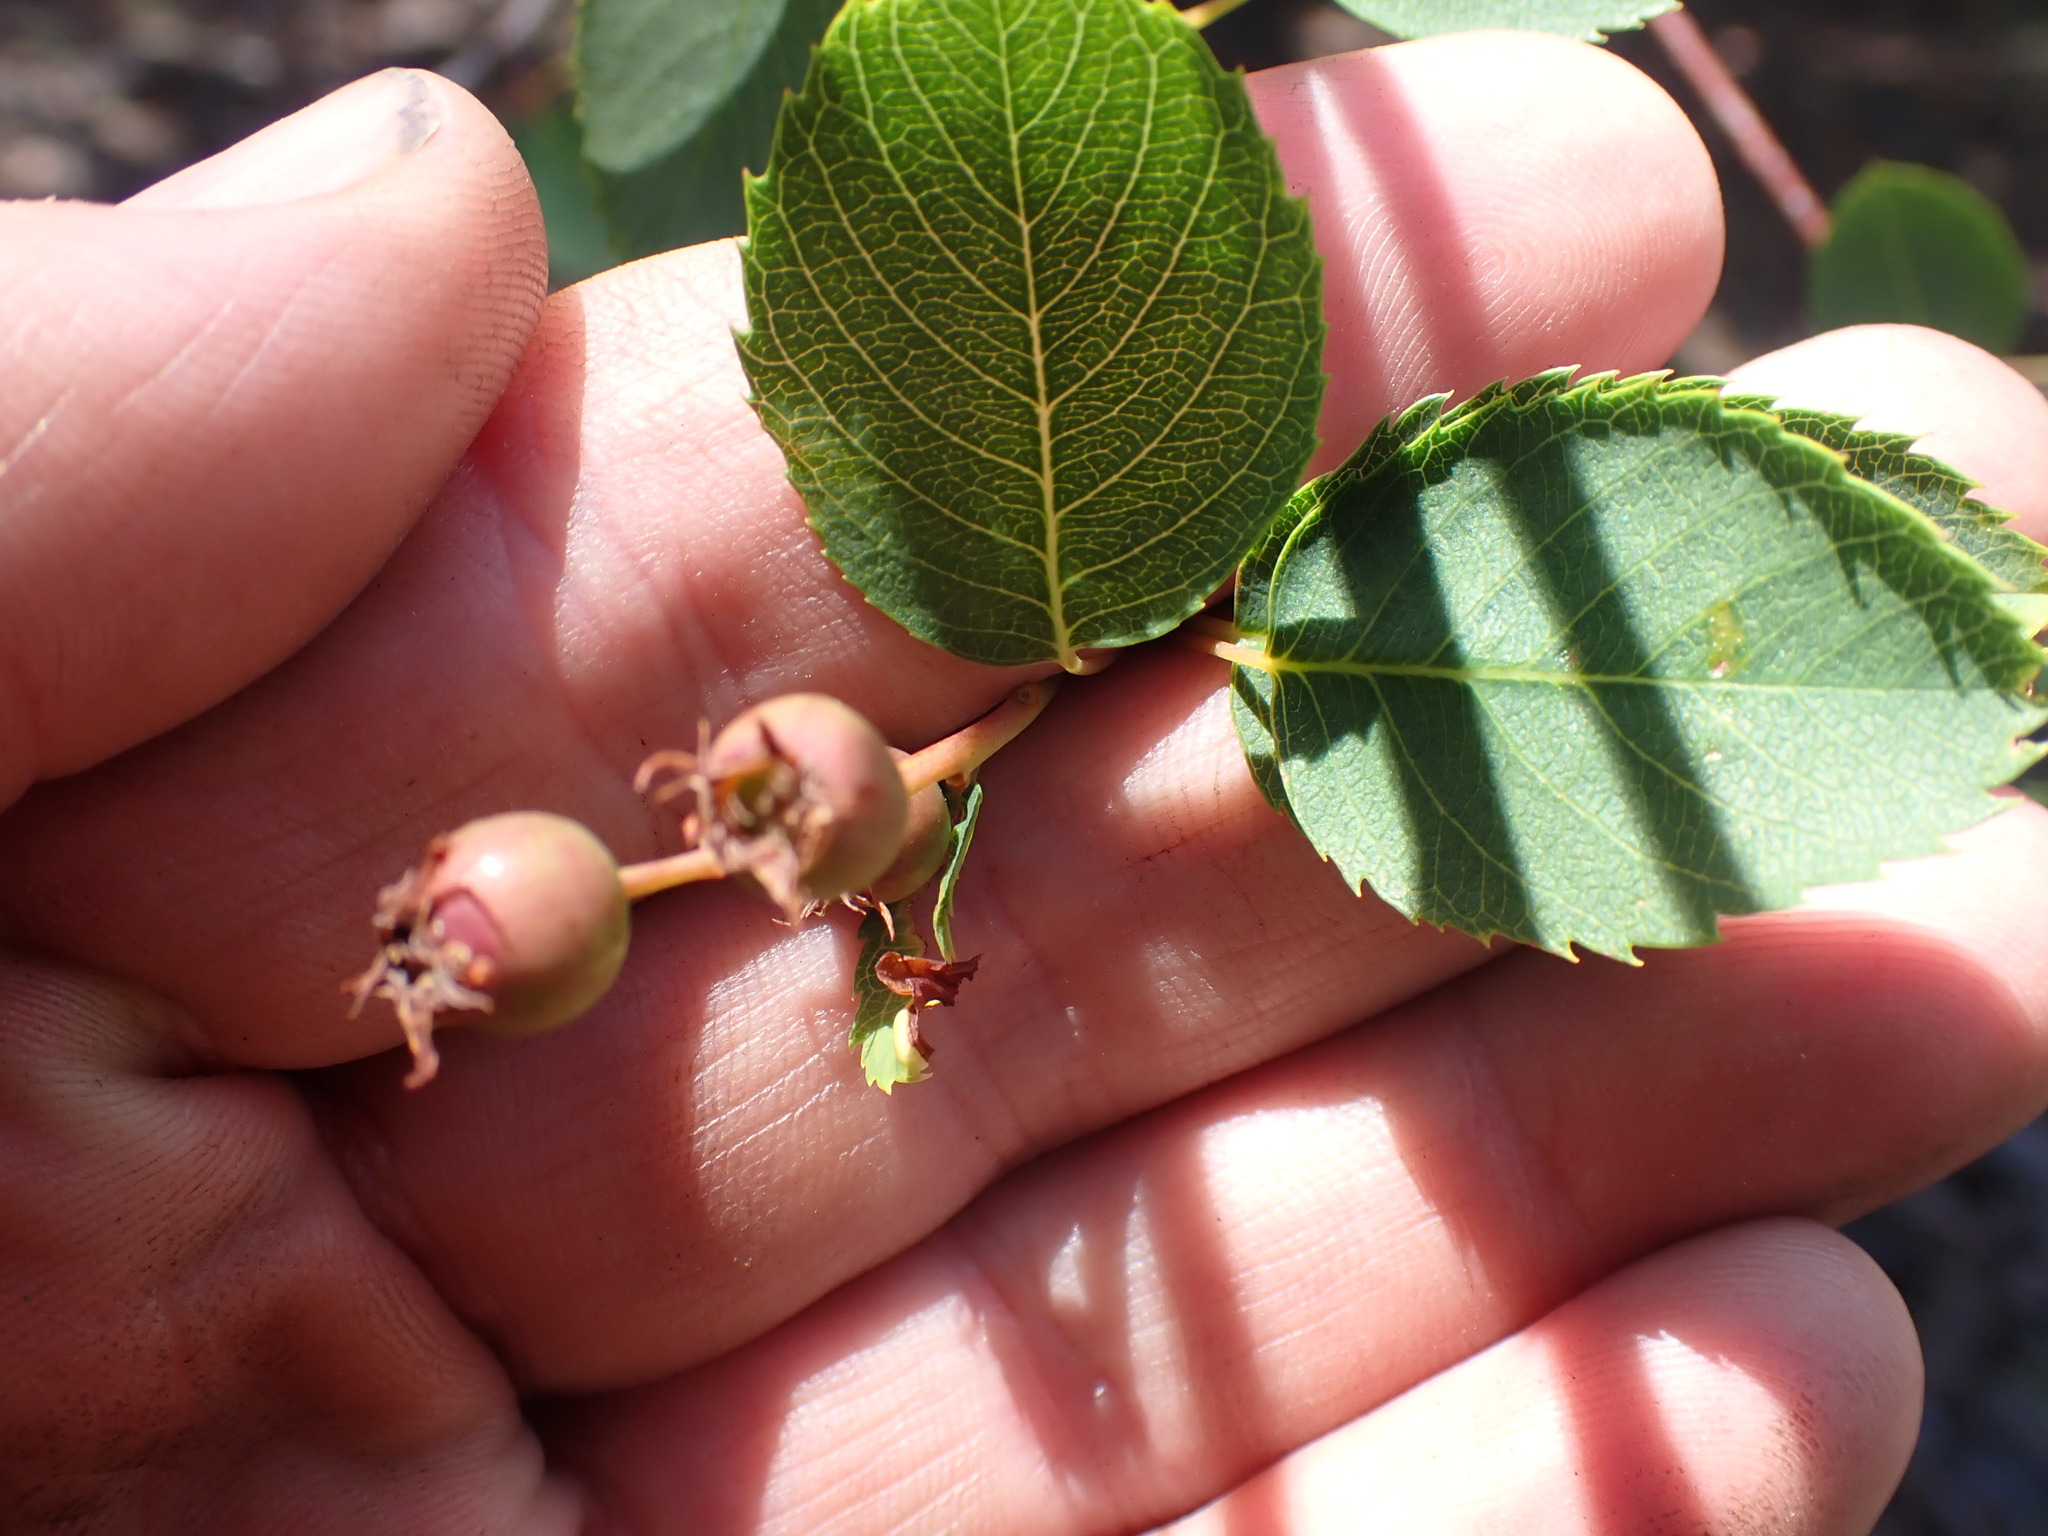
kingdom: Plantae
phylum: Tracheophyta
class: Magnoliopsida
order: Rosales
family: Rosaceae
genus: Amelanchier
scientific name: Amelanchier alnifolia
